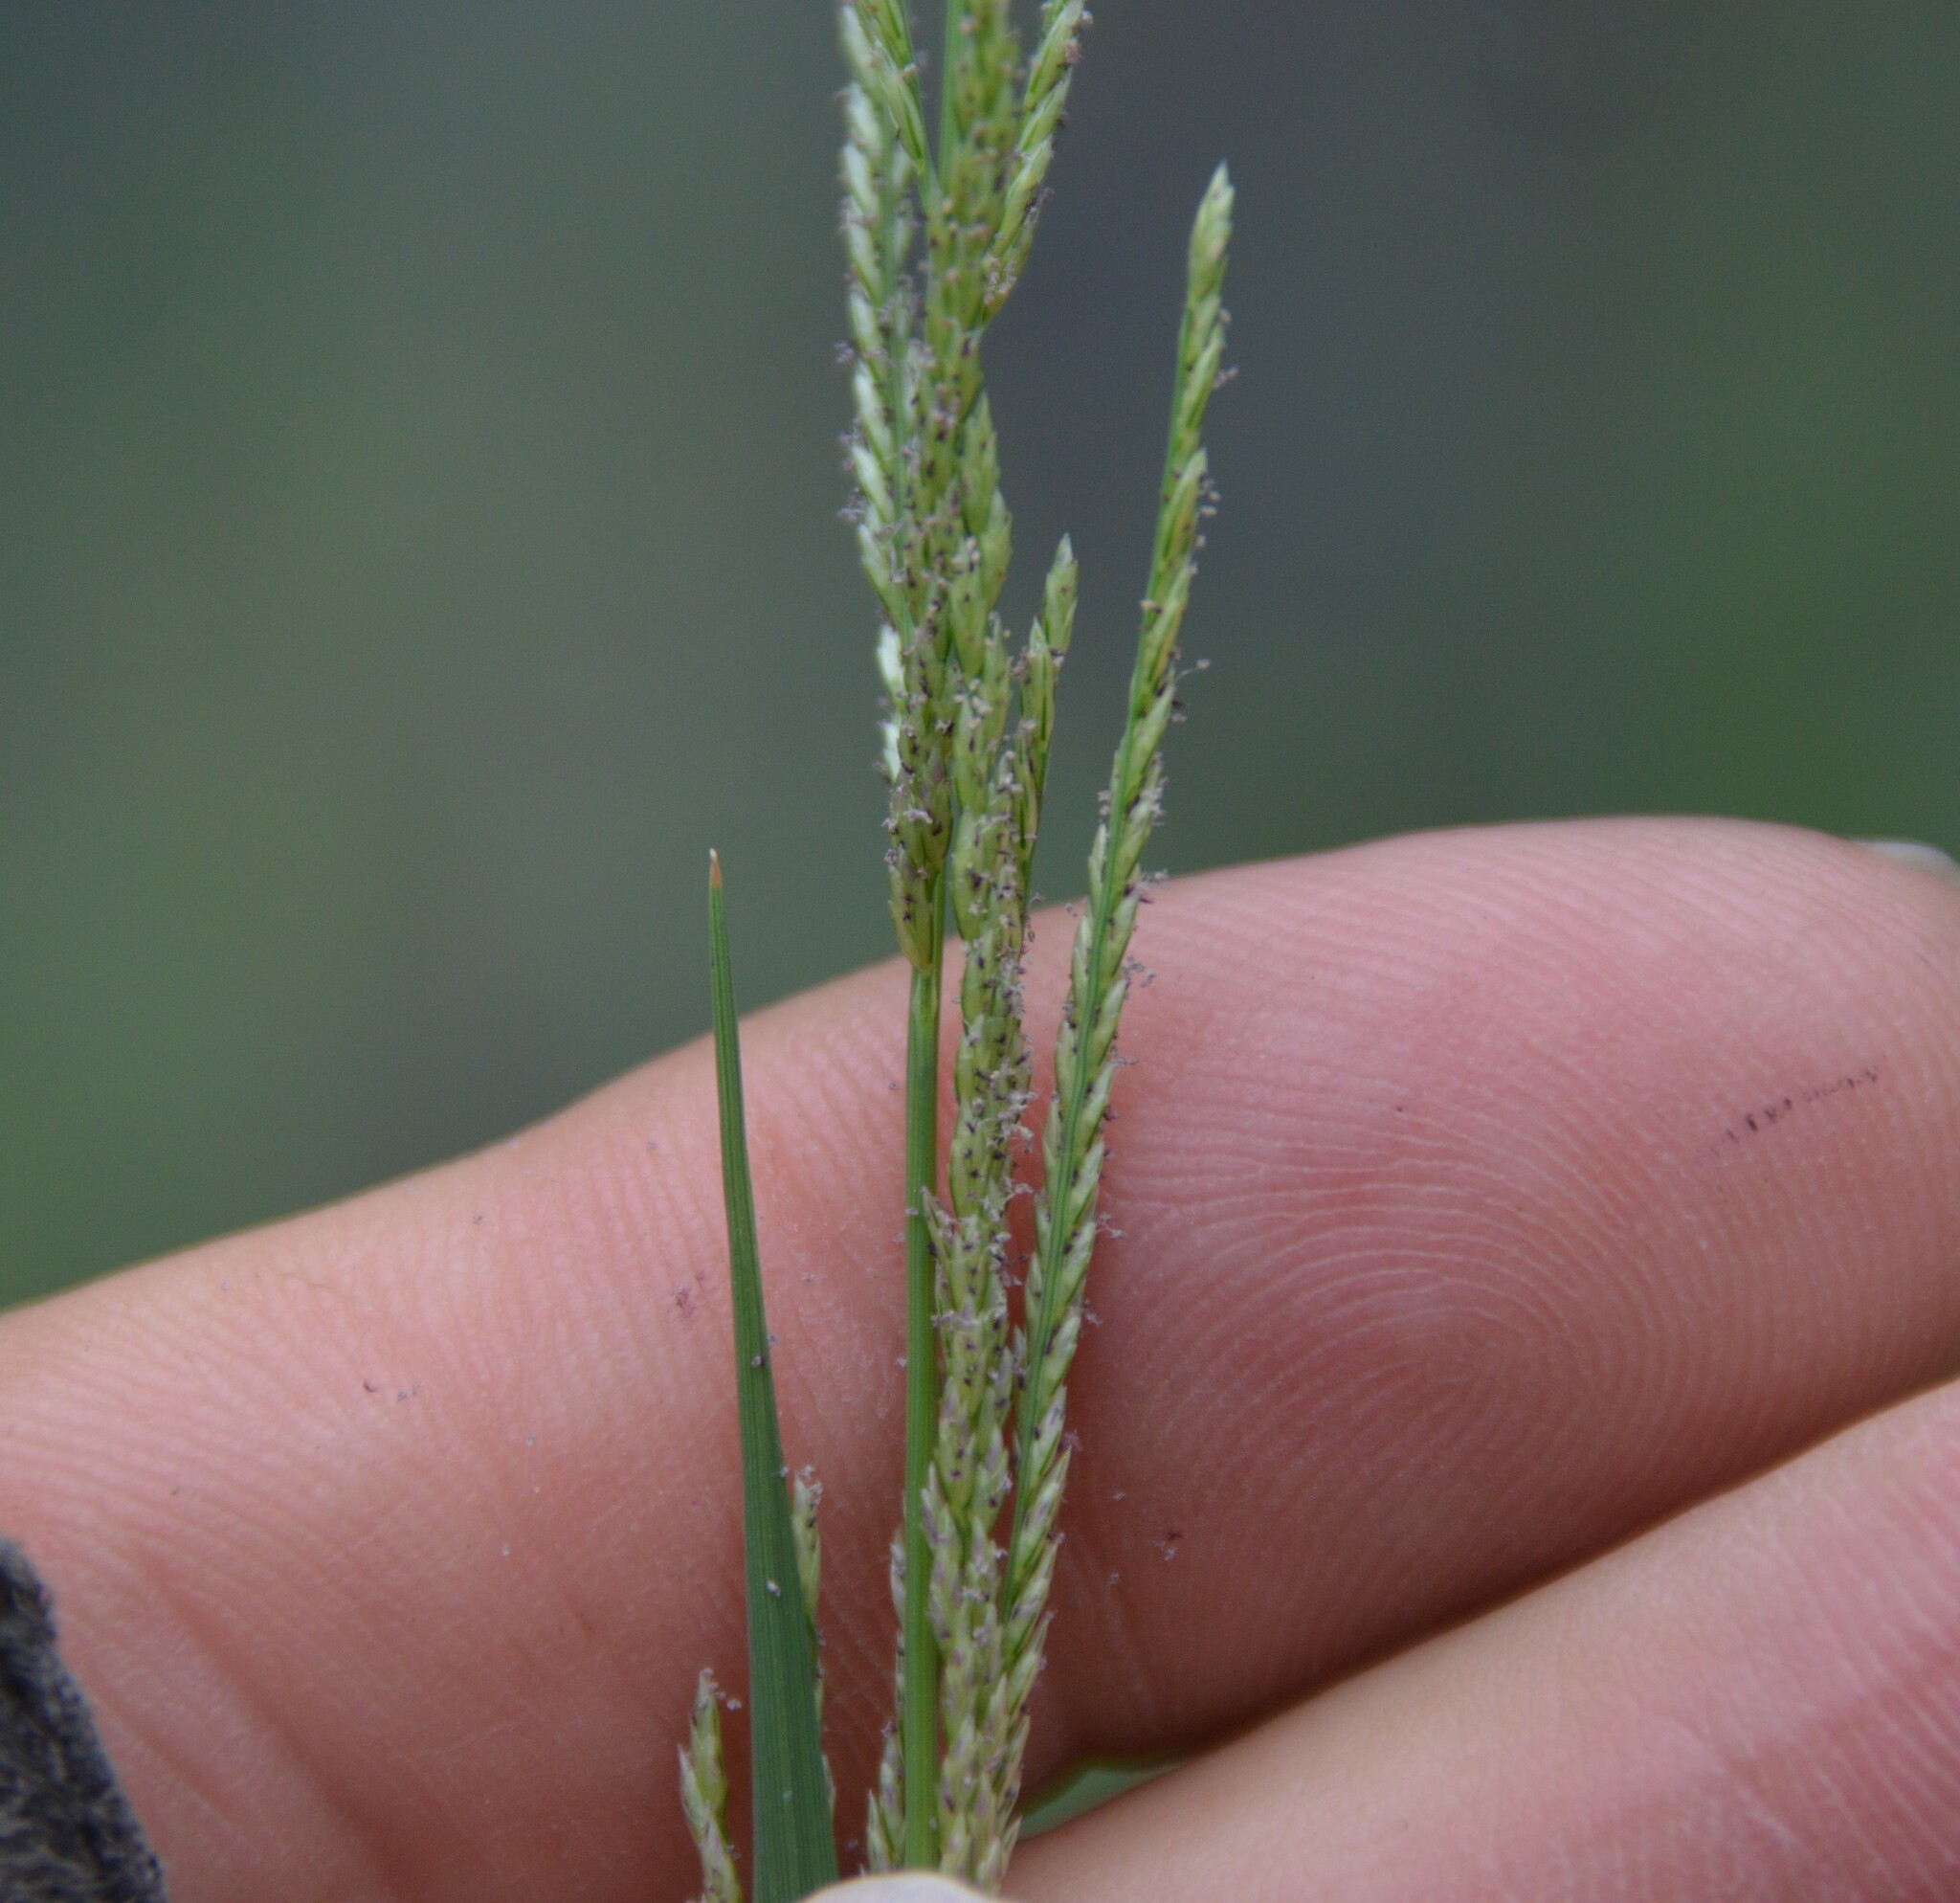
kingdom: Plantae
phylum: Tracheophyta
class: Liliopsida
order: Poales
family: Poaceae
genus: Leptochloa
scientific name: Leptochloa nealleyi
